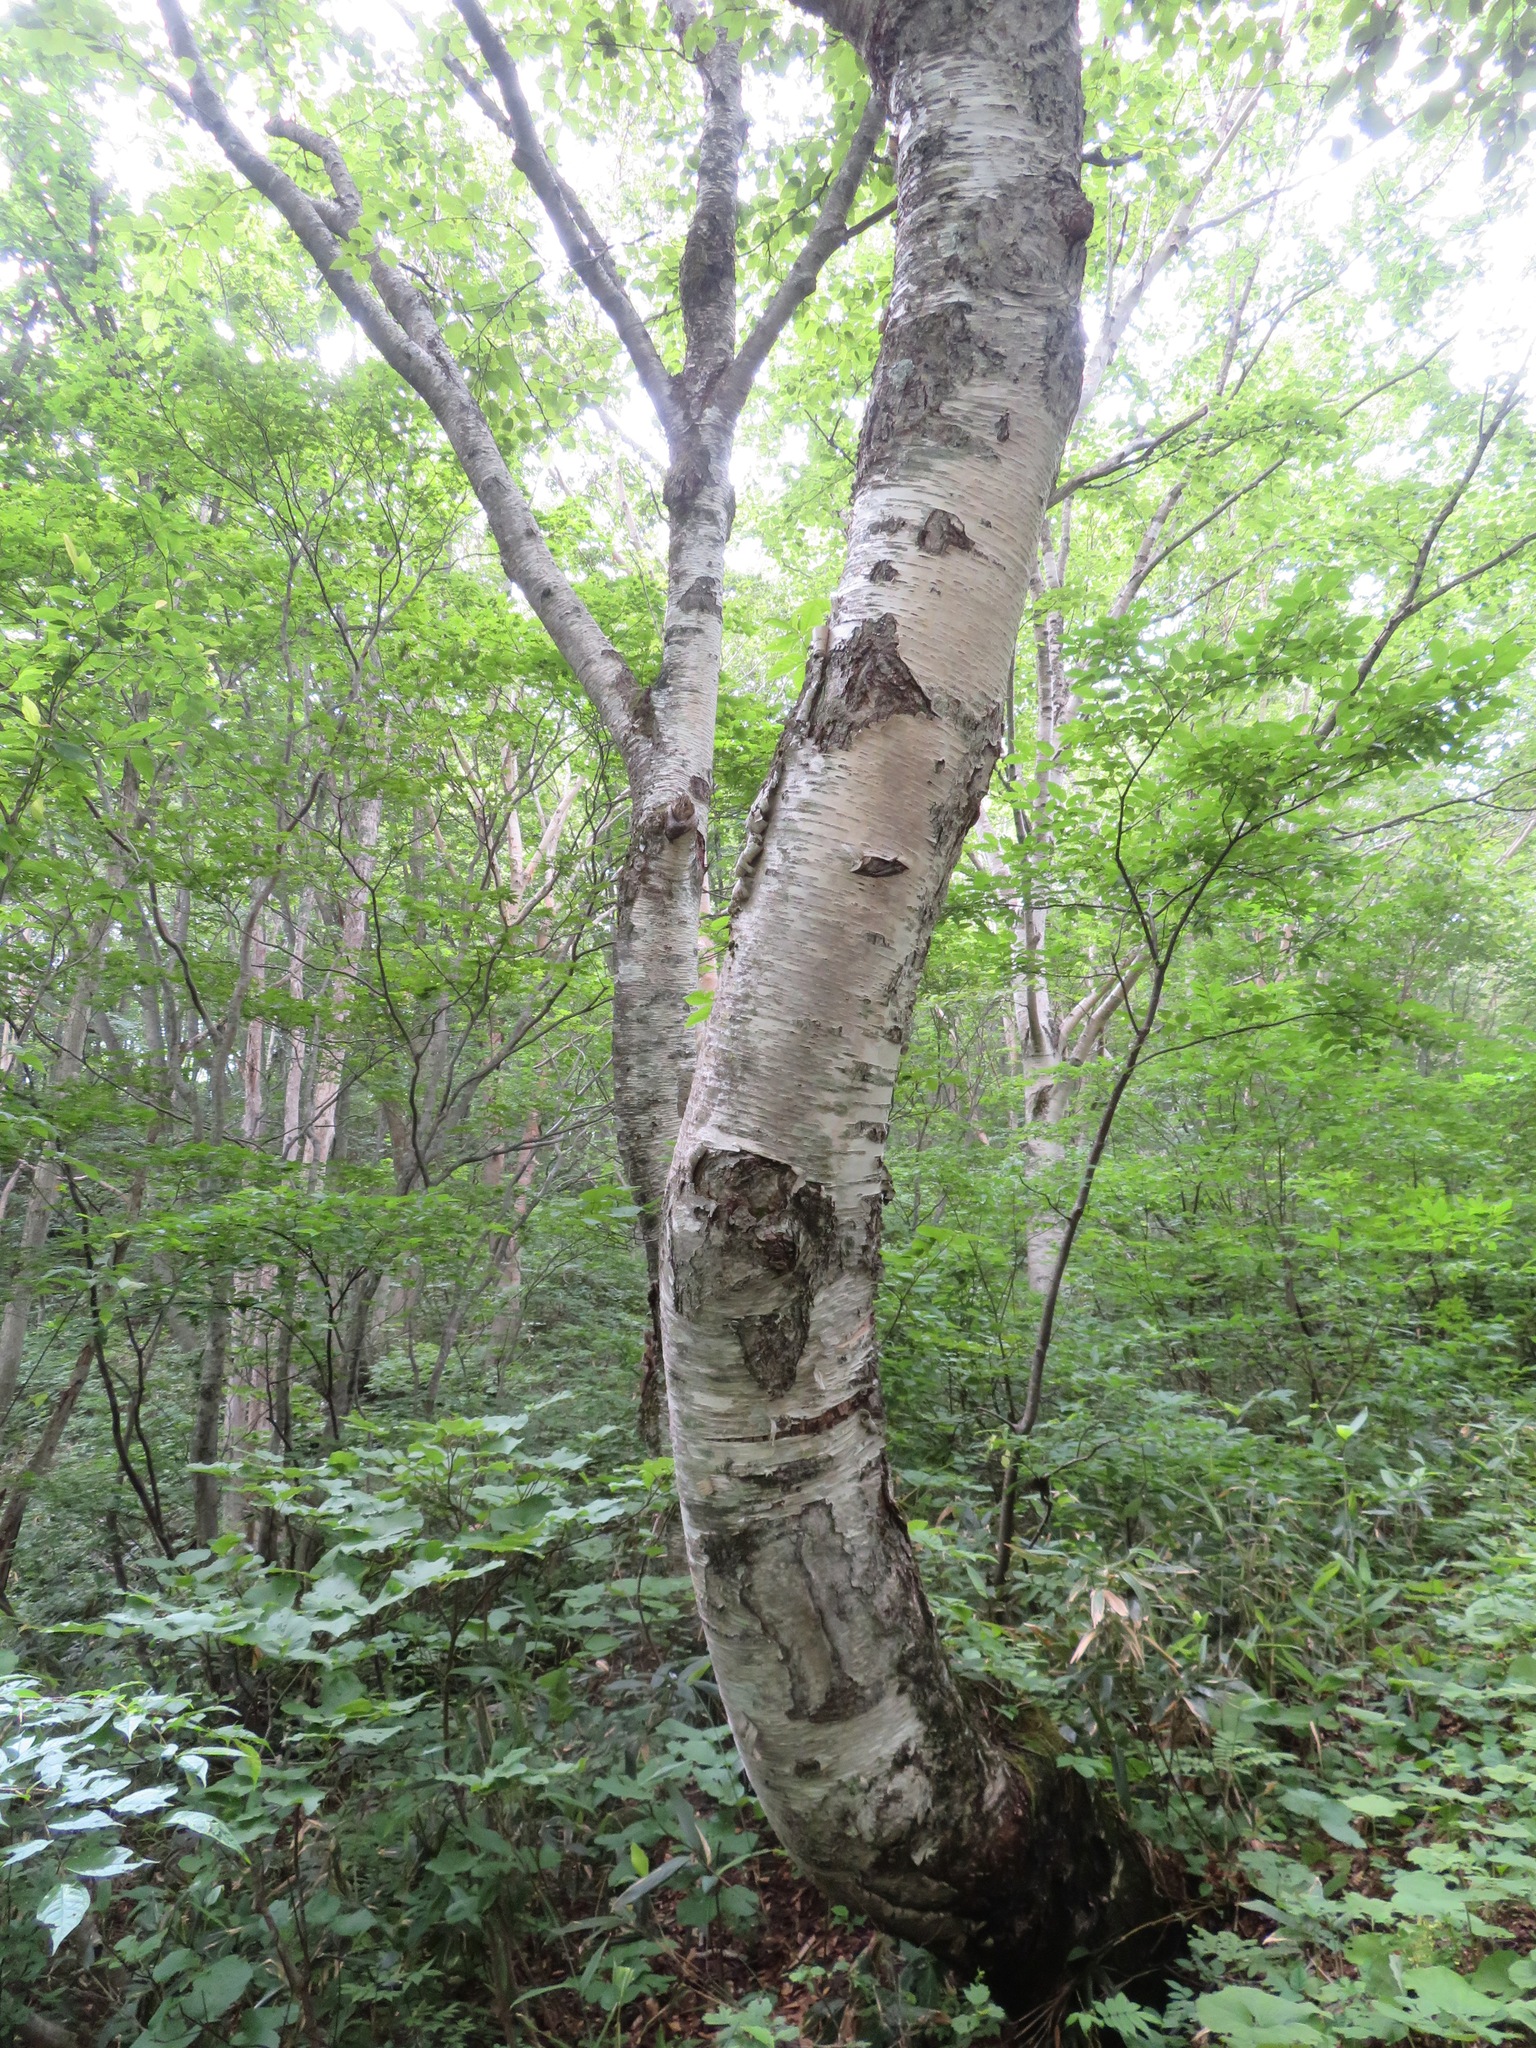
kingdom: Plantae
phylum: Tracheophyta
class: Magnoliopsida
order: Fagales
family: Betulaceae
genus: Betula
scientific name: Betula maximowicziana
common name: Monarch birch
